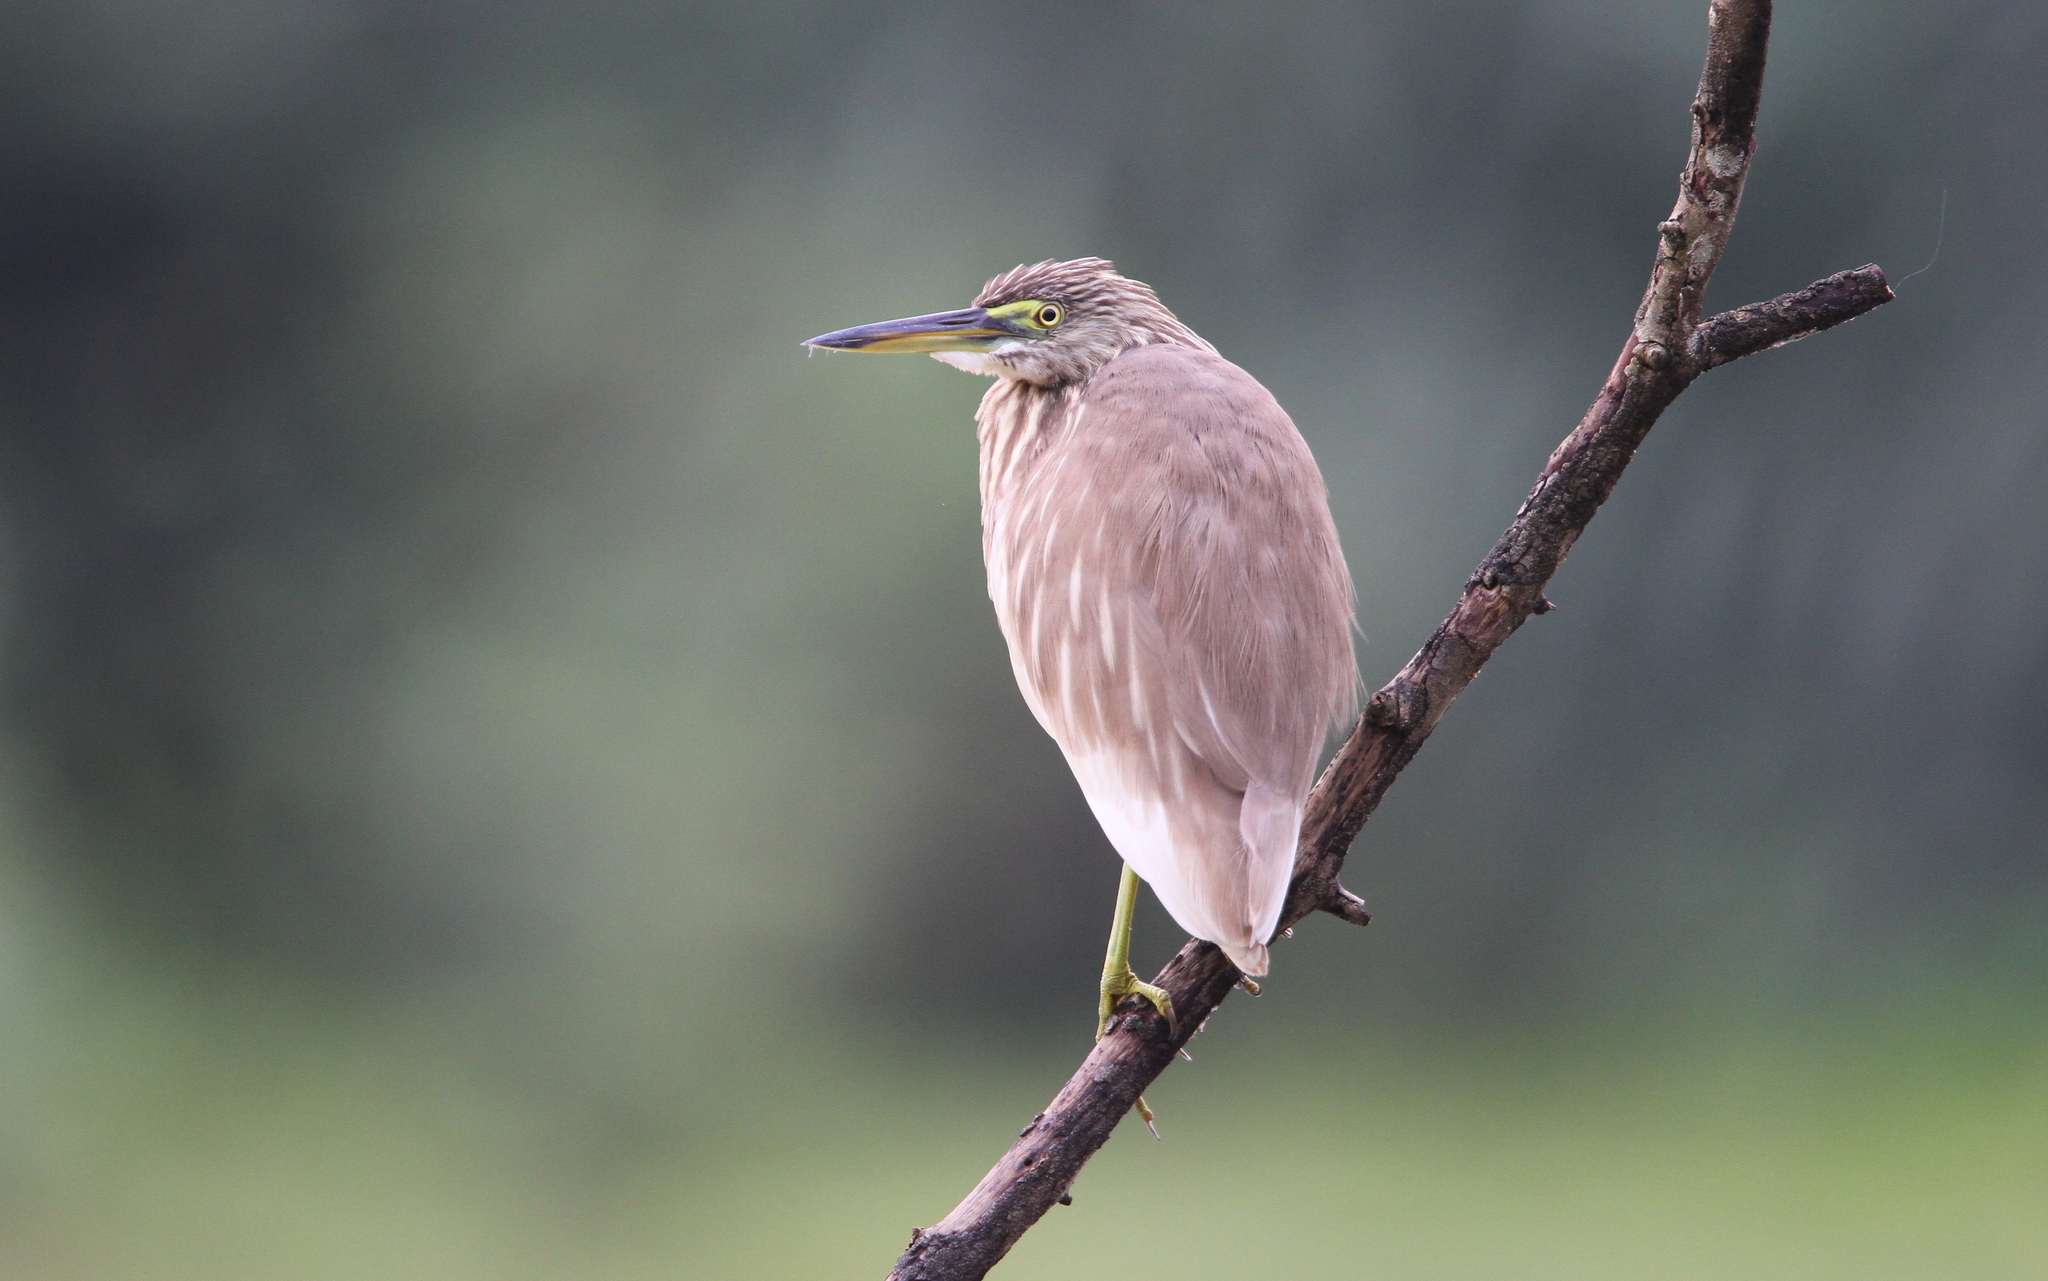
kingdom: Animalia
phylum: Chordata
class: Aves
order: Pelecaniformes
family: Ardeidae
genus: Ardeola
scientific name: Ardeola grayii
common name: Indian pond heron
